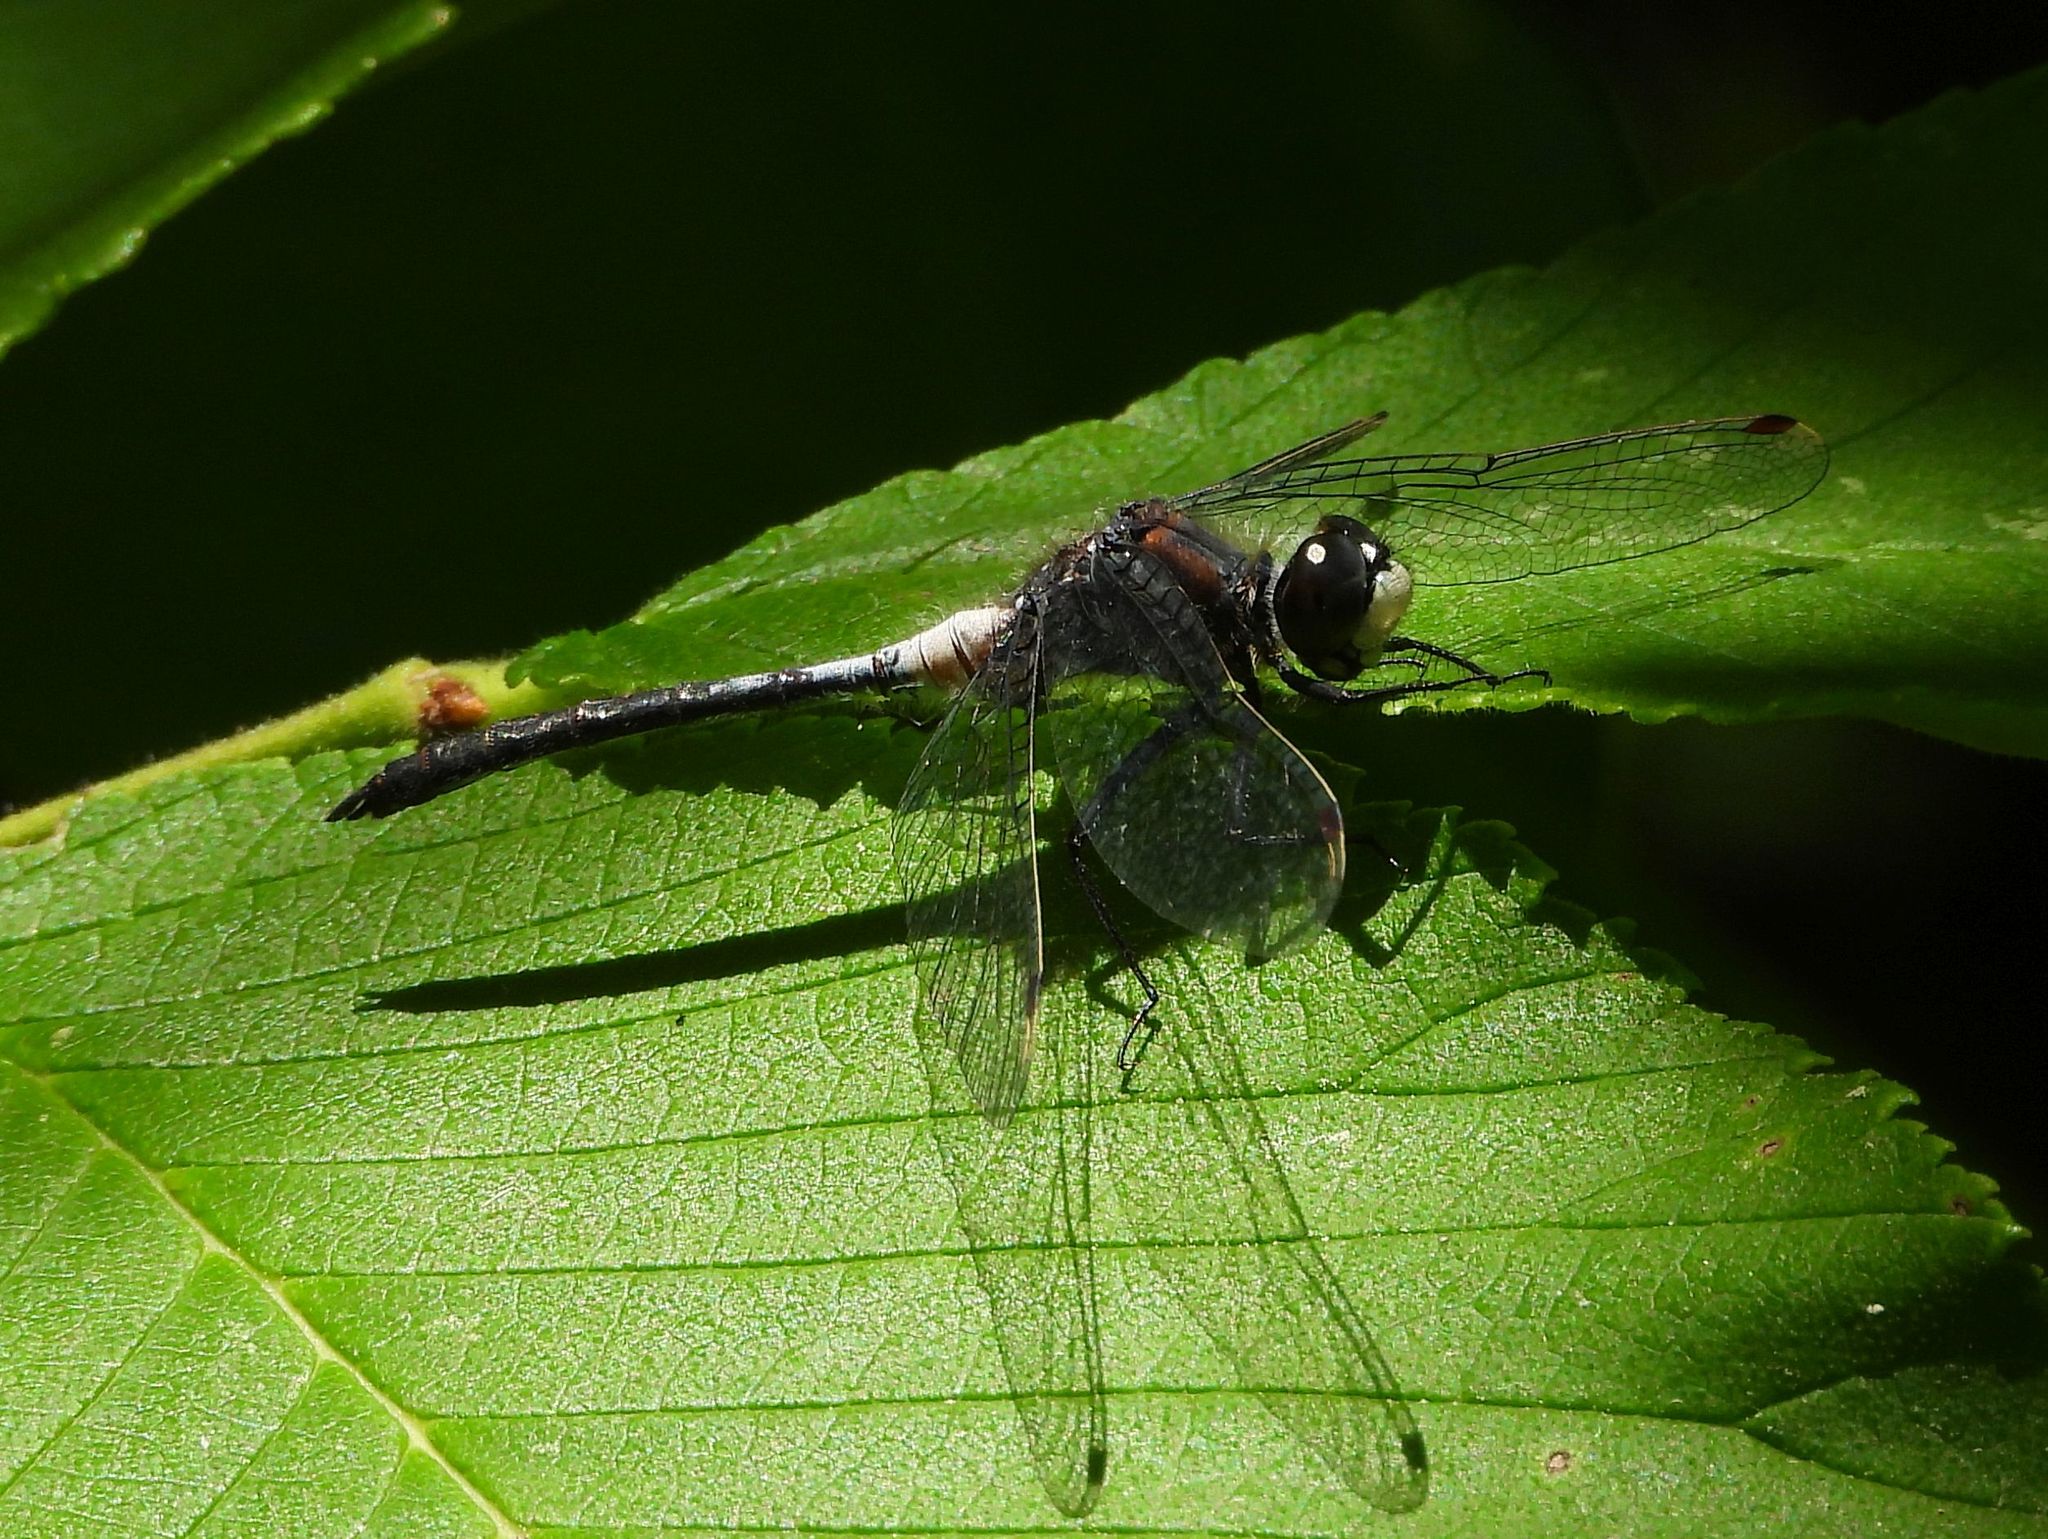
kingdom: Animalia
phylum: Arthropoda
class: Insecta
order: Odonata
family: Libellulidae
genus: Leucorrhinia
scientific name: Leucorrhinia proxima
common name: Belted whiteface
